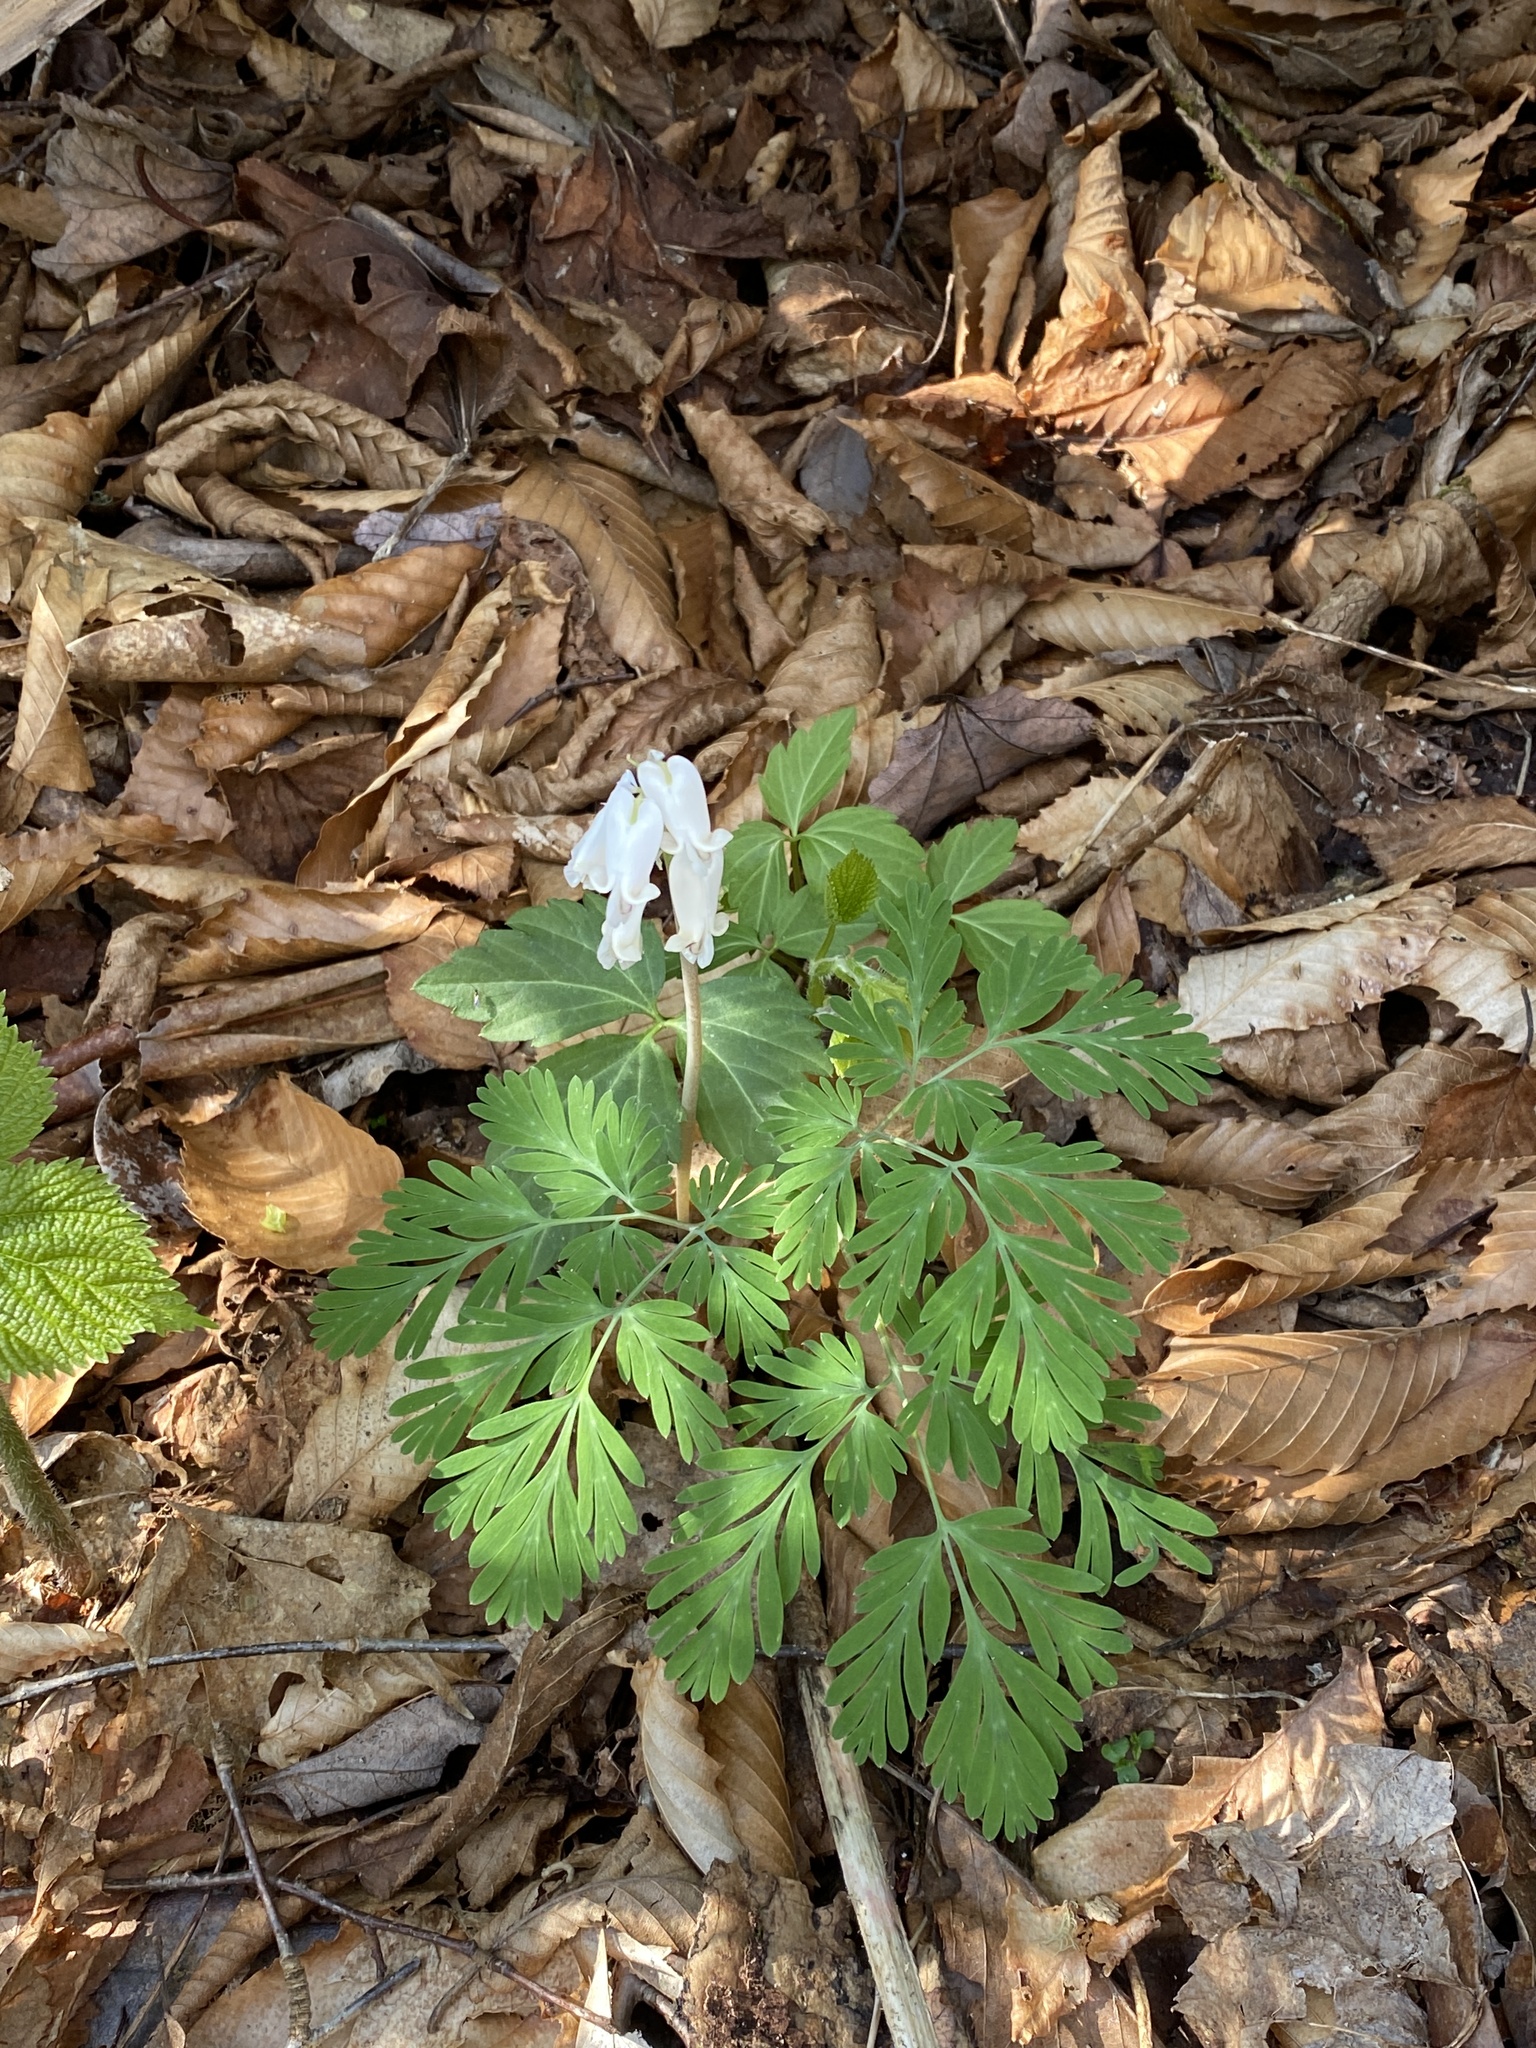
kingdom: Plantae
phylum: Tracheophyta
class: Magnoliopsida
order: Ranunculales
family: Papaveraceae
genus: Dicentra
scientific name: Dicentra canadensis
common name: Squirrel-corn
